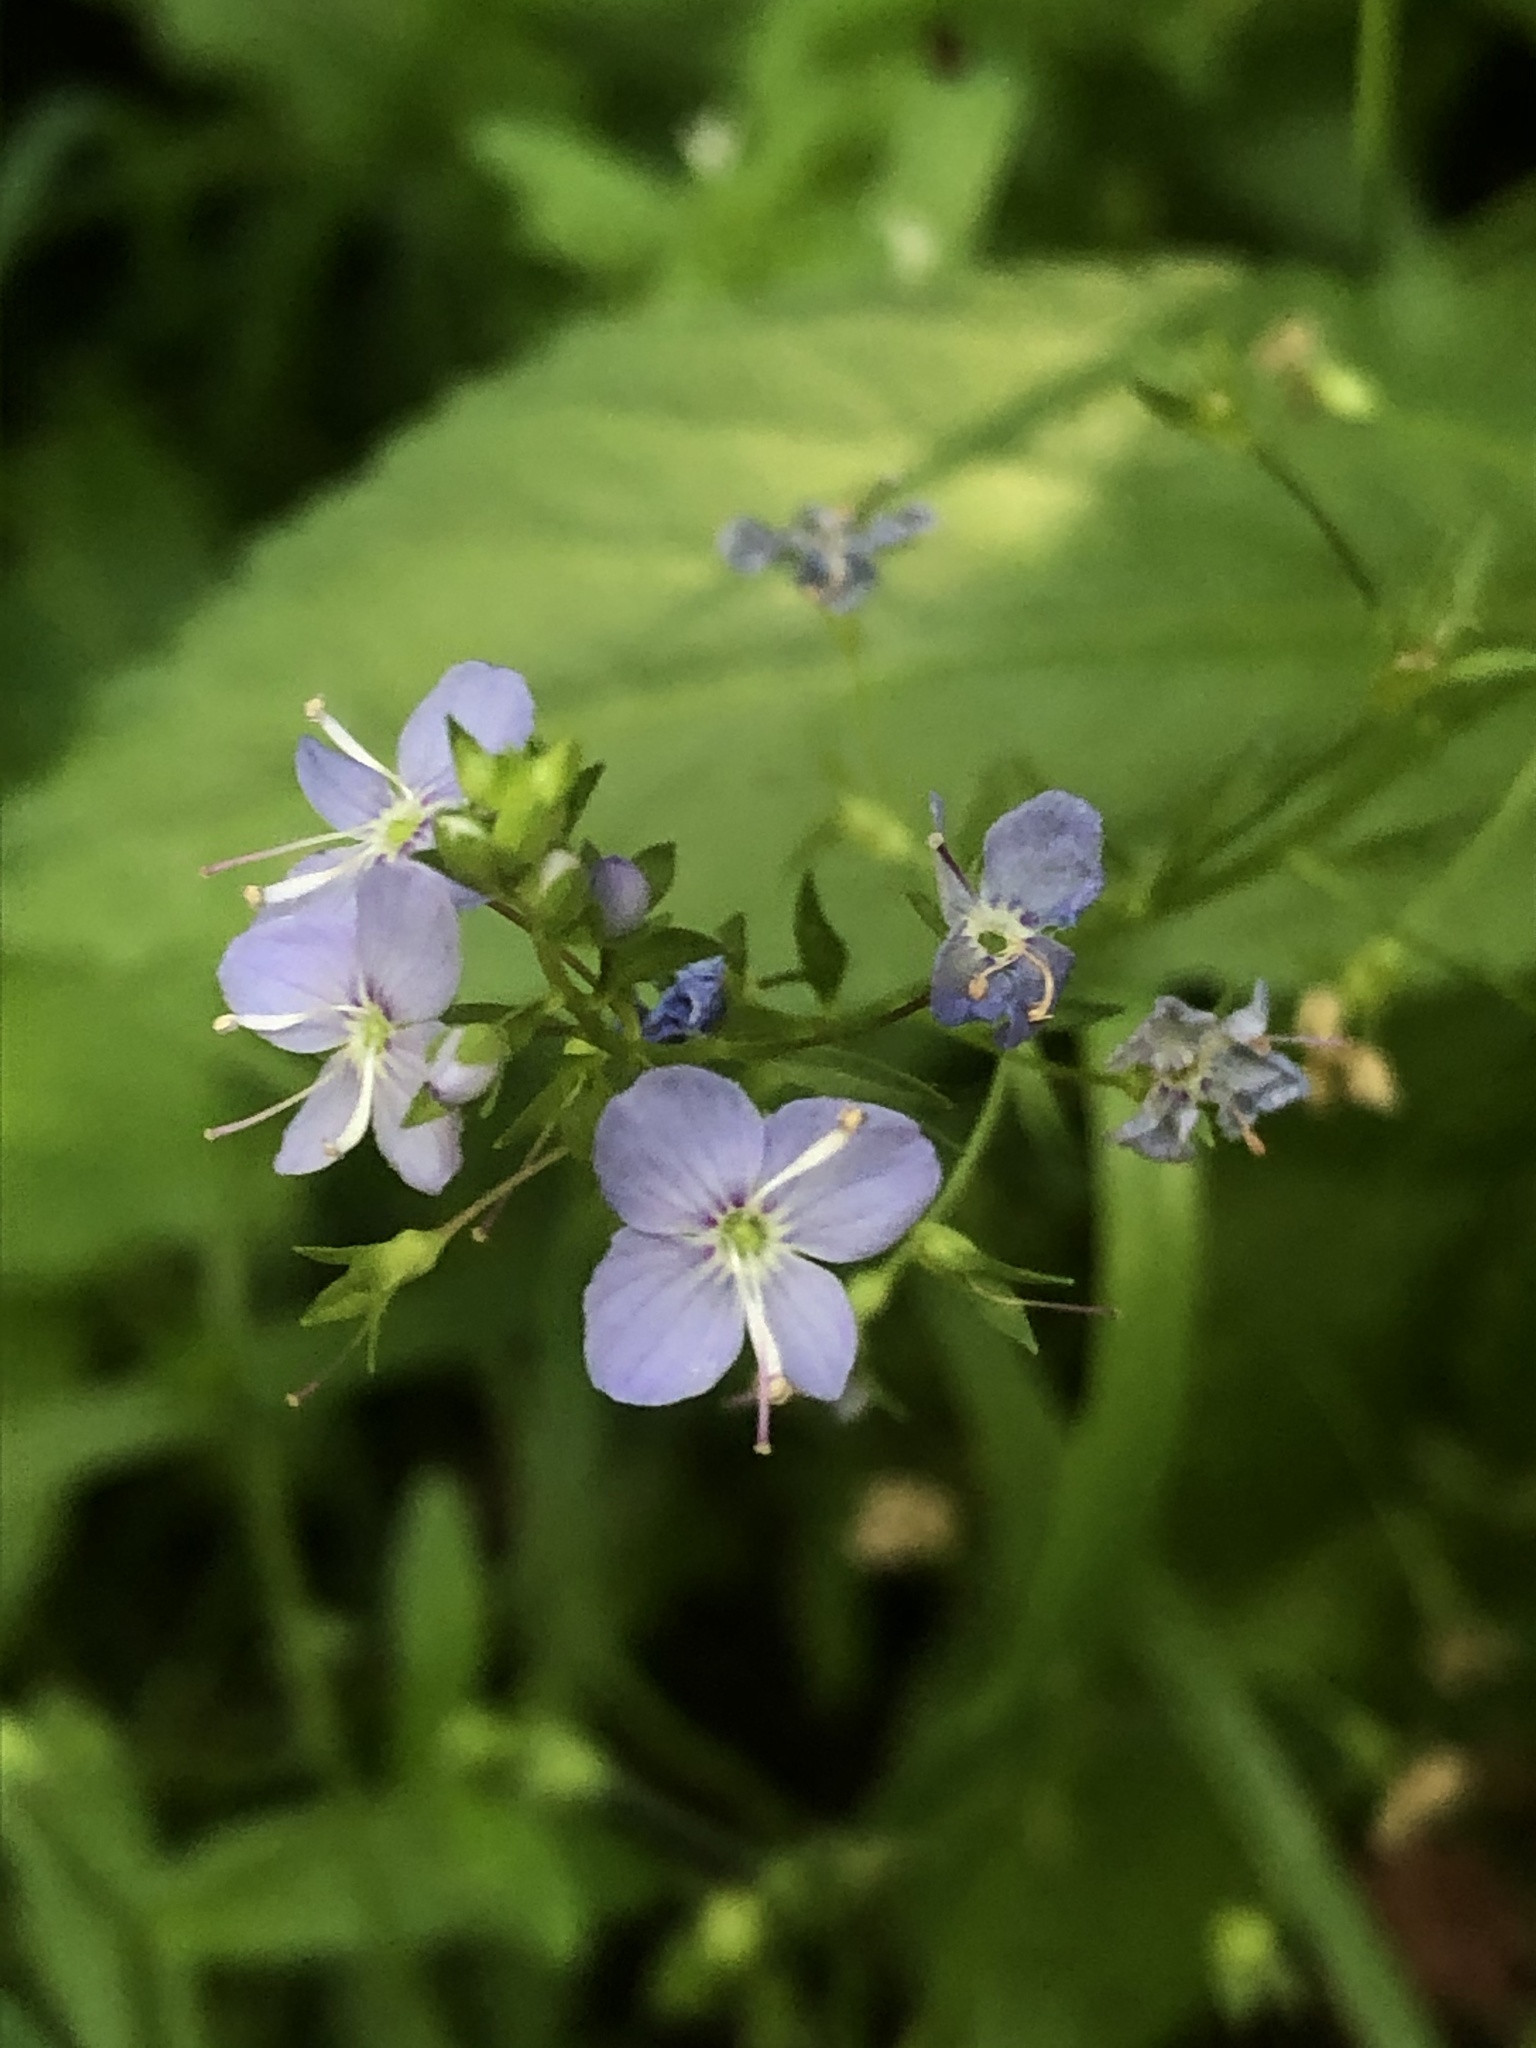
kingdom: Plantae
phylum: Tracheophyta
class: Magnoliopsida
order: Lamiales
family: Plantaginaceae
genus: Veronica
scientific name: Veronica americana
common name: American brooklime
